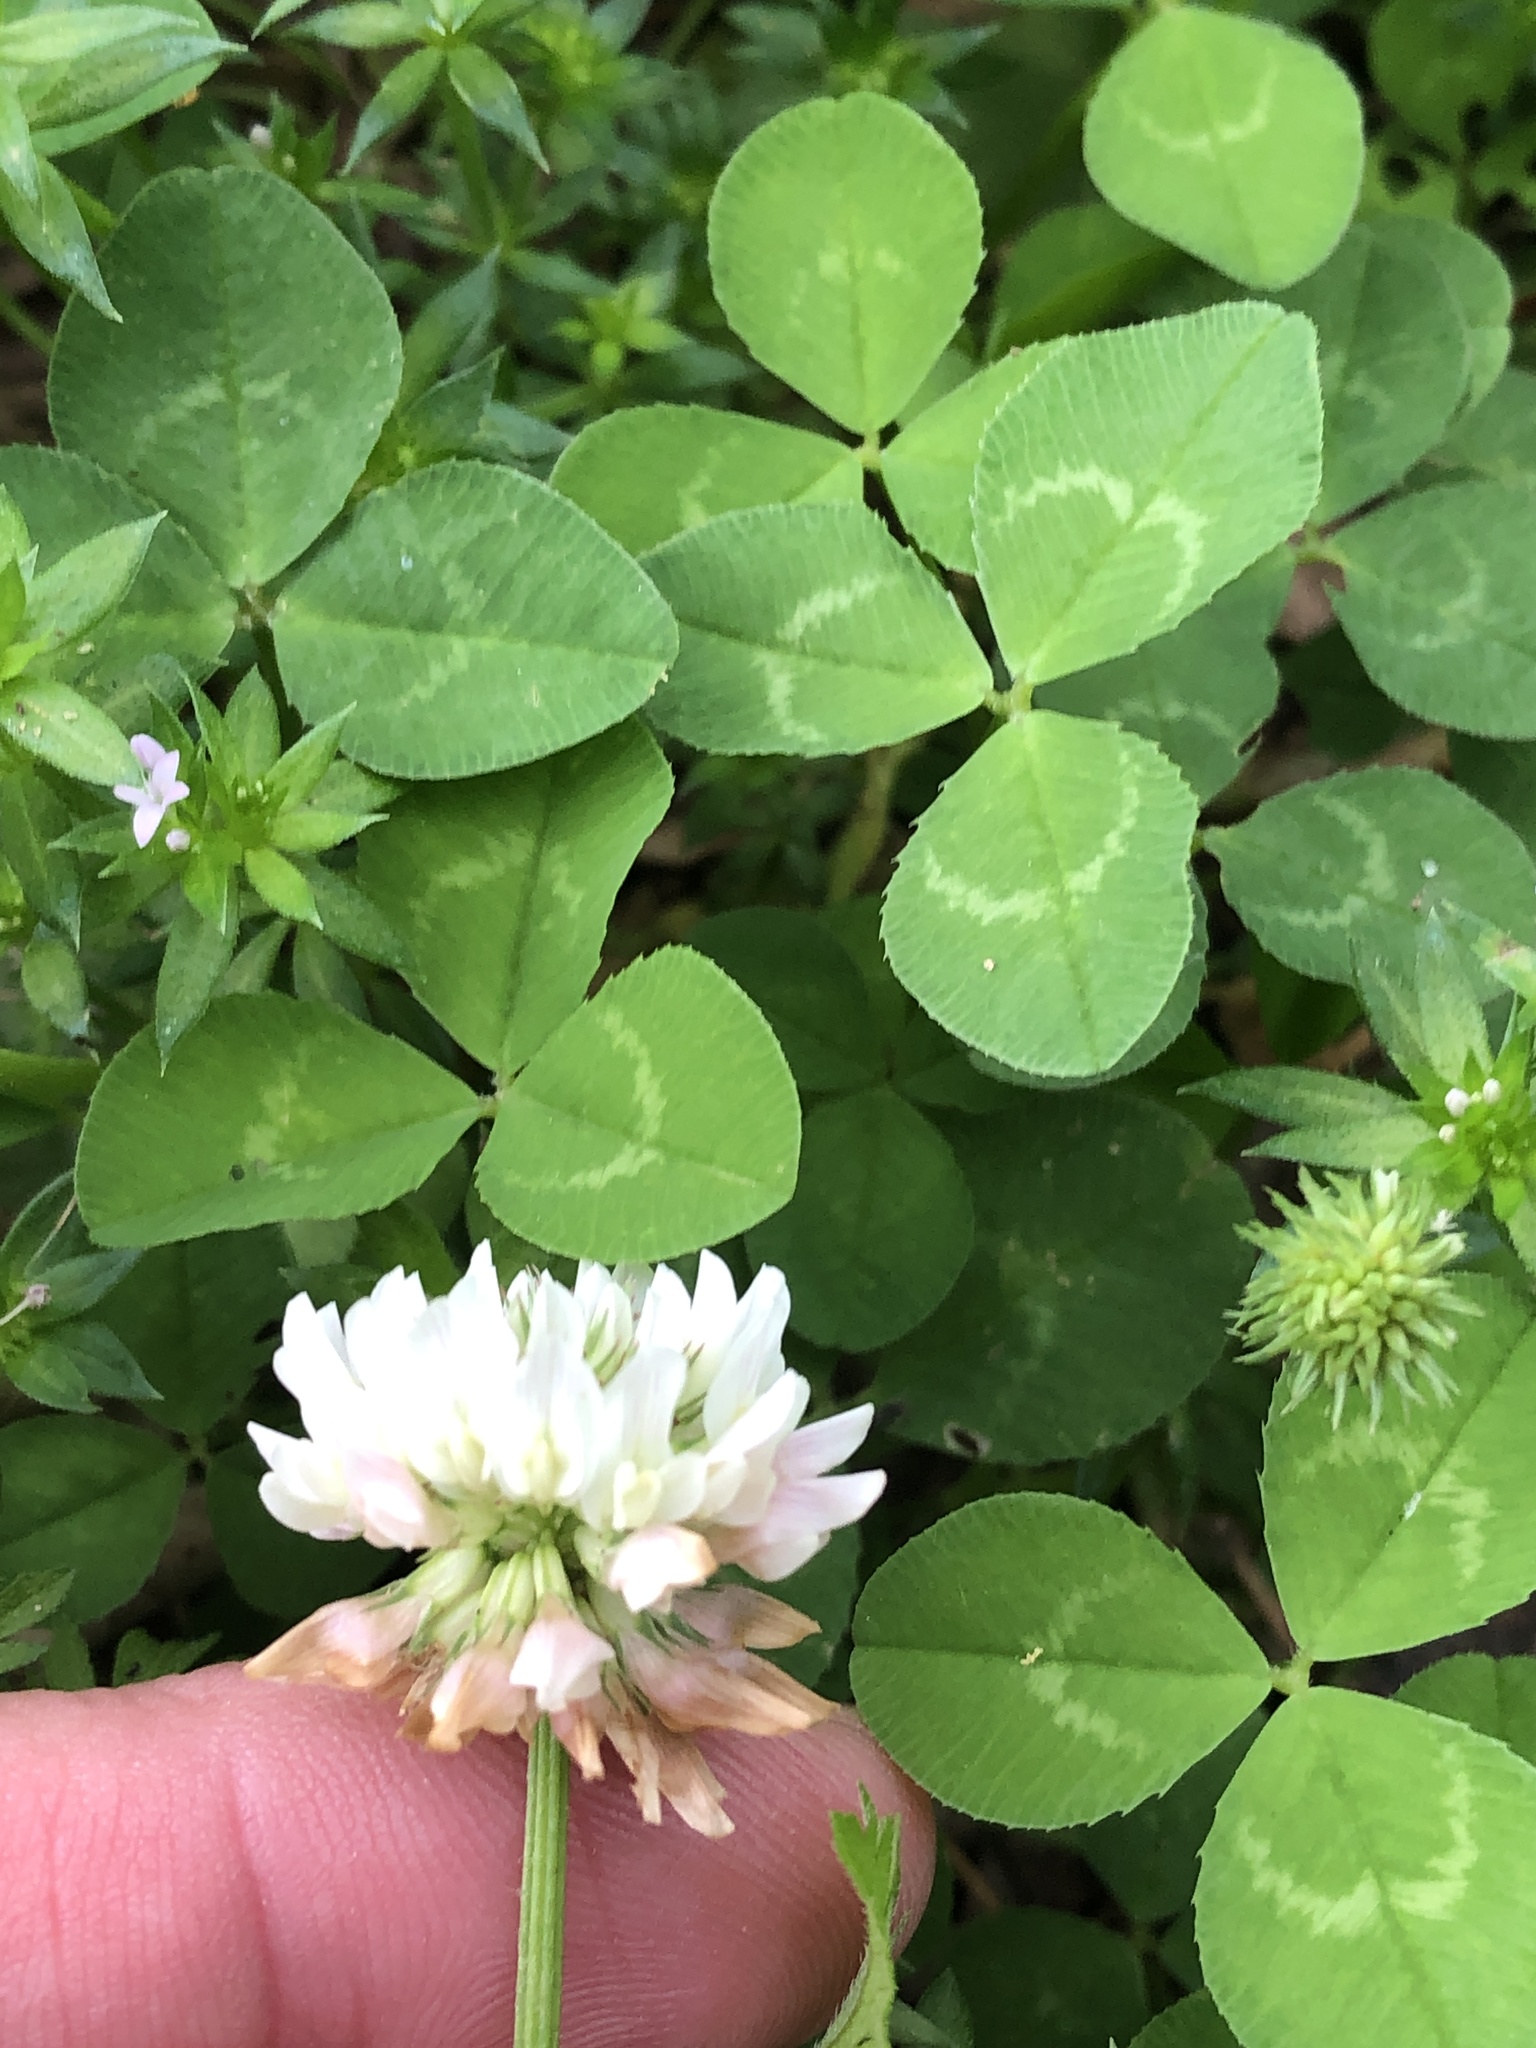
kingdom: Plantae
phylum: Tracheophyta
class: Magnoliopsida
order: Fabales
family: Fabaceae
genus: Trifolium
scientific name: Trifolium repens
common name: White clover
